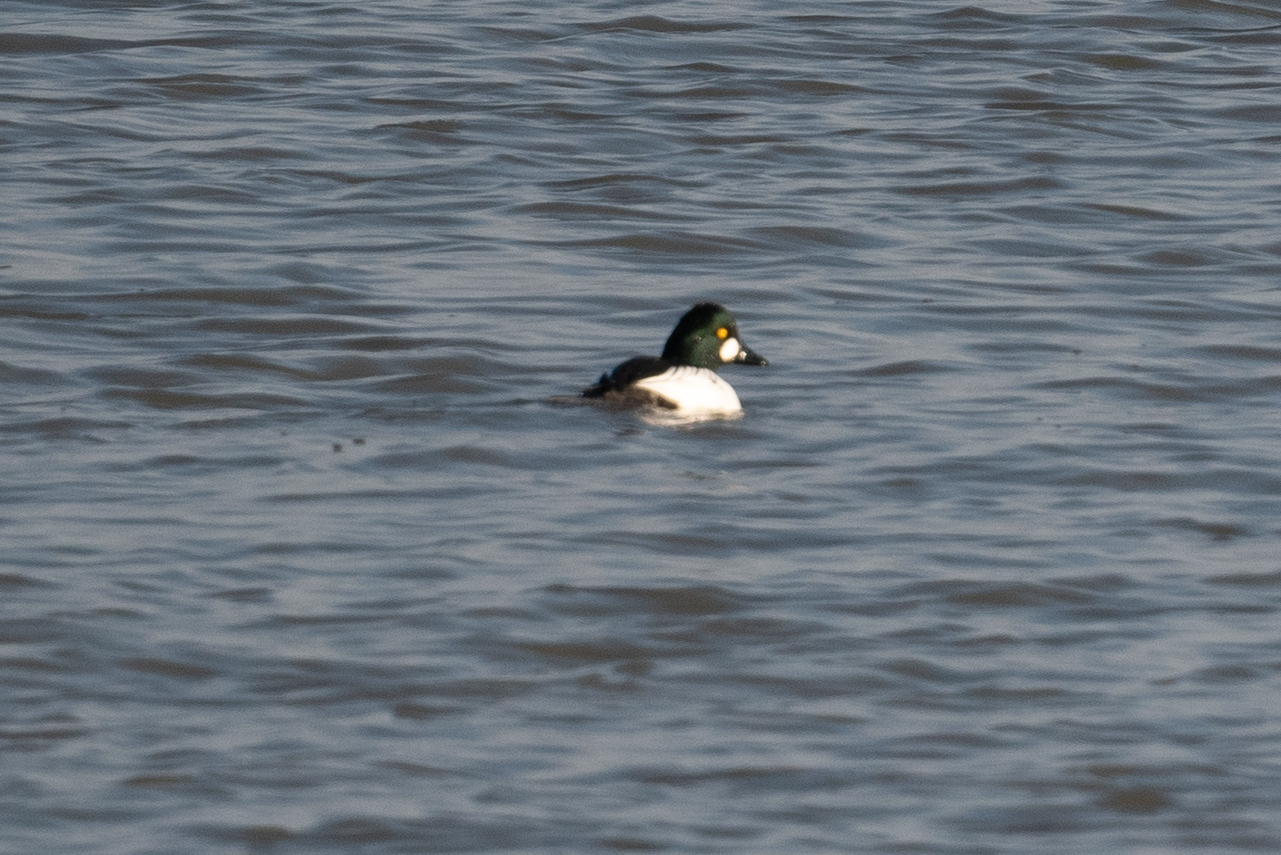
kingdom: Animalia
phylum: Chordata
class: Aves
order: Anseriformes
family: Anatidae
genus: Bucephala
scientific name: Bucephala clangula
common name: Common goldeneye
